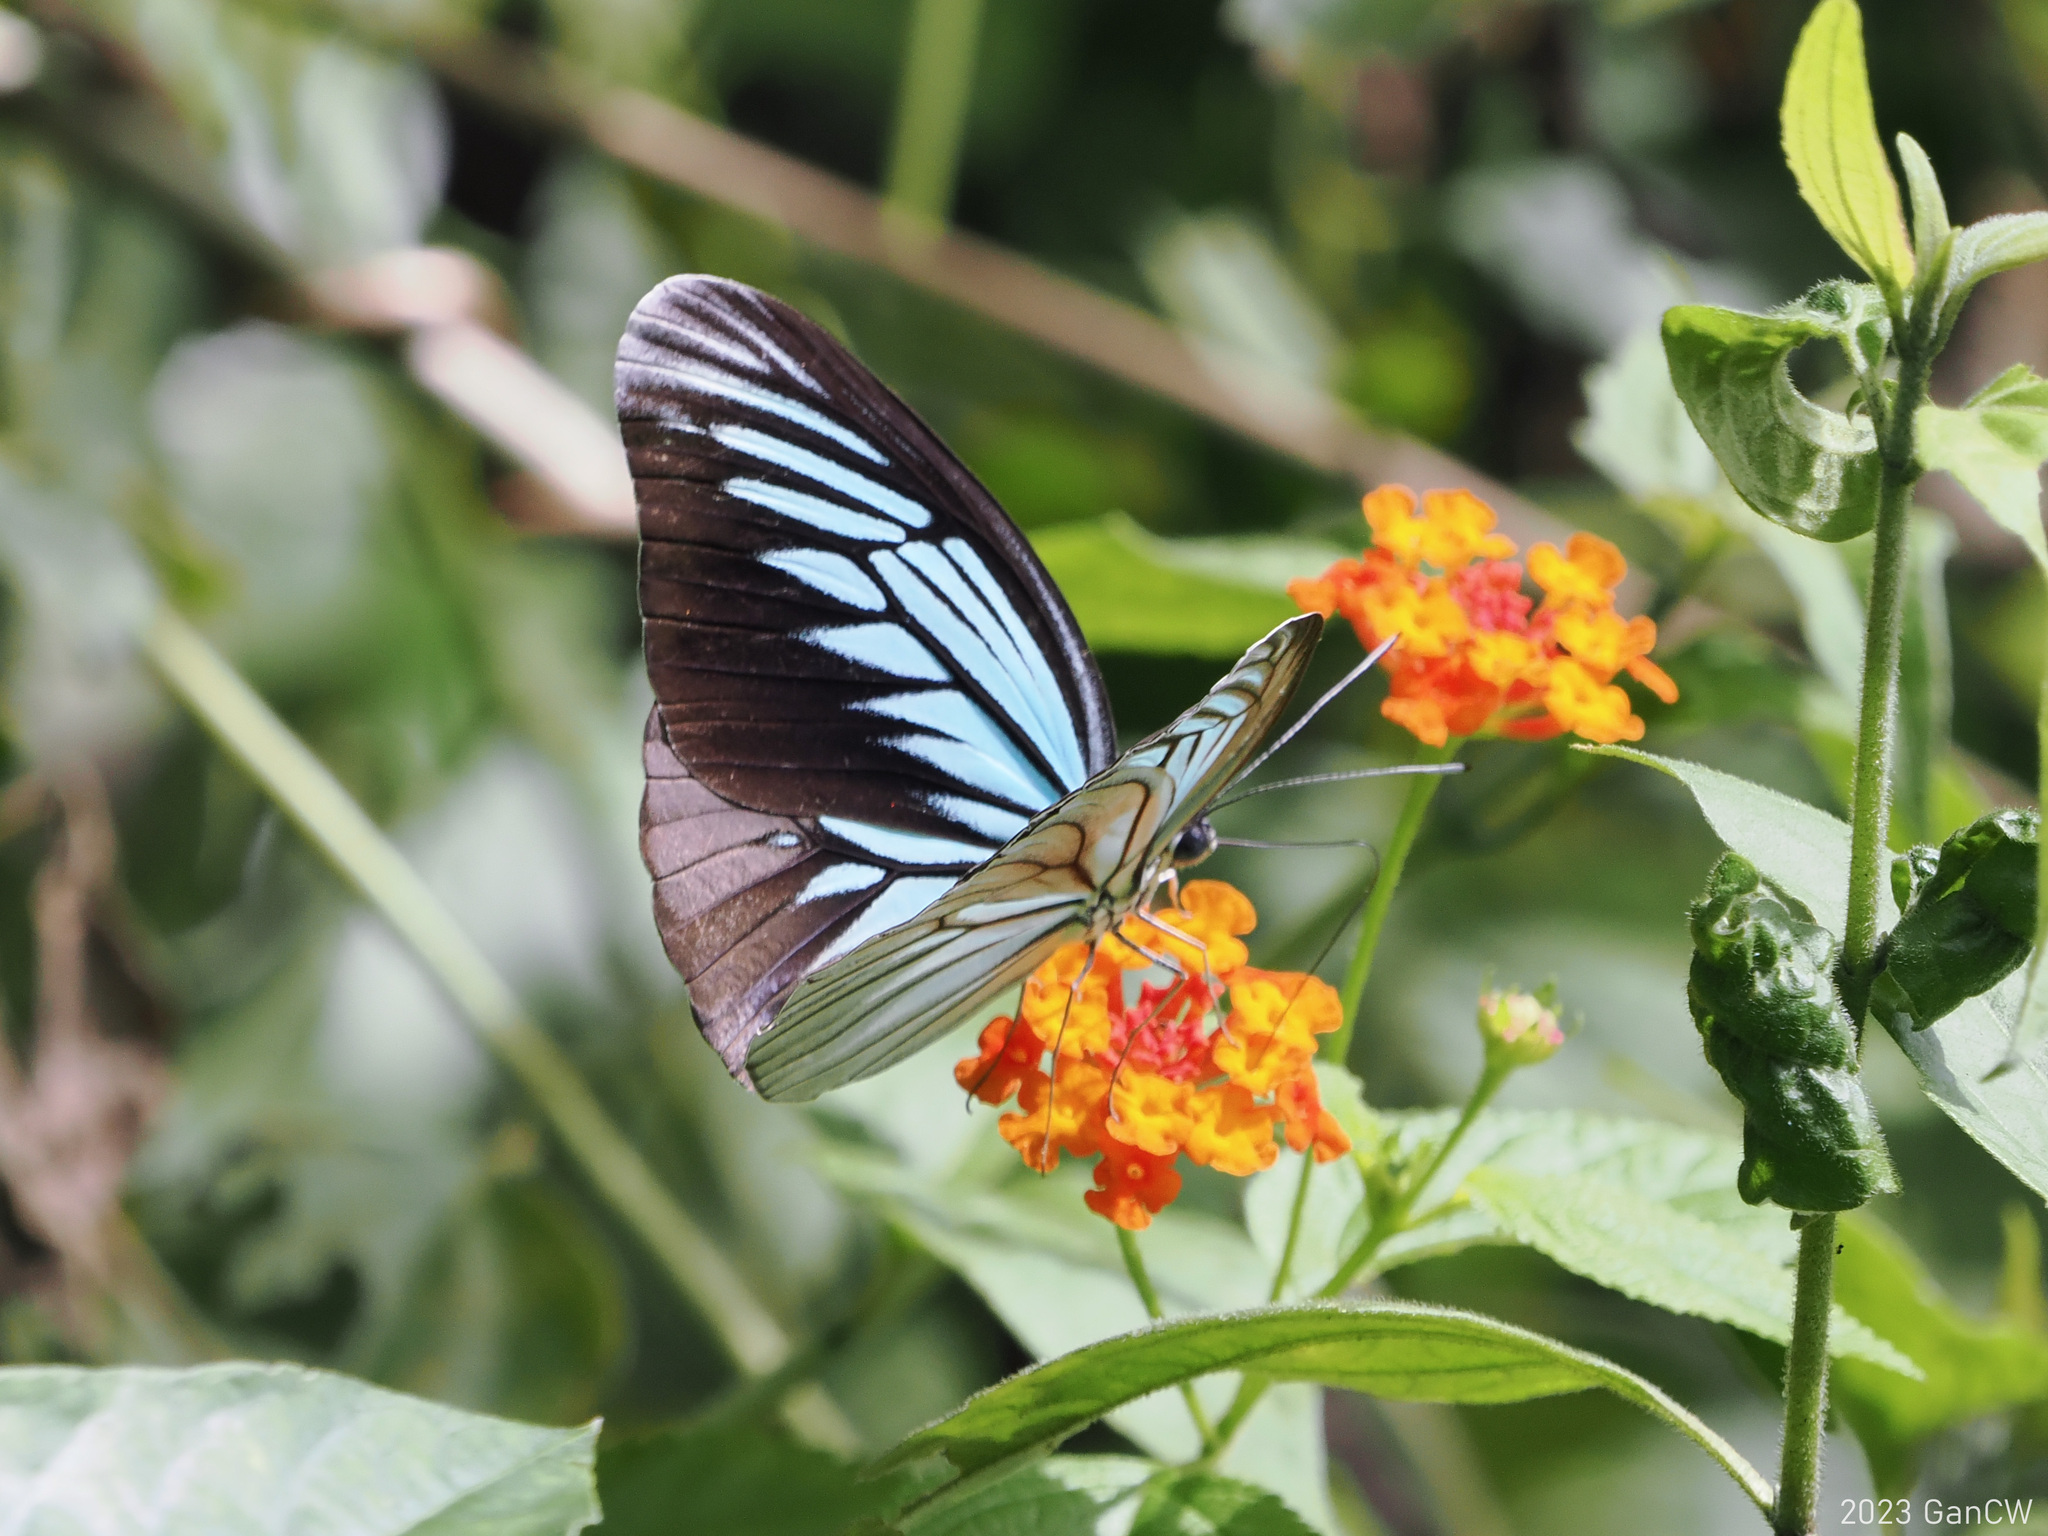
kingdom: Animalia
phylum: Arthropoda
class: Insecta
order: Lepidoptera
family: Pieridae
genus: Pareronia
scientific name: Pareronia tritaea
